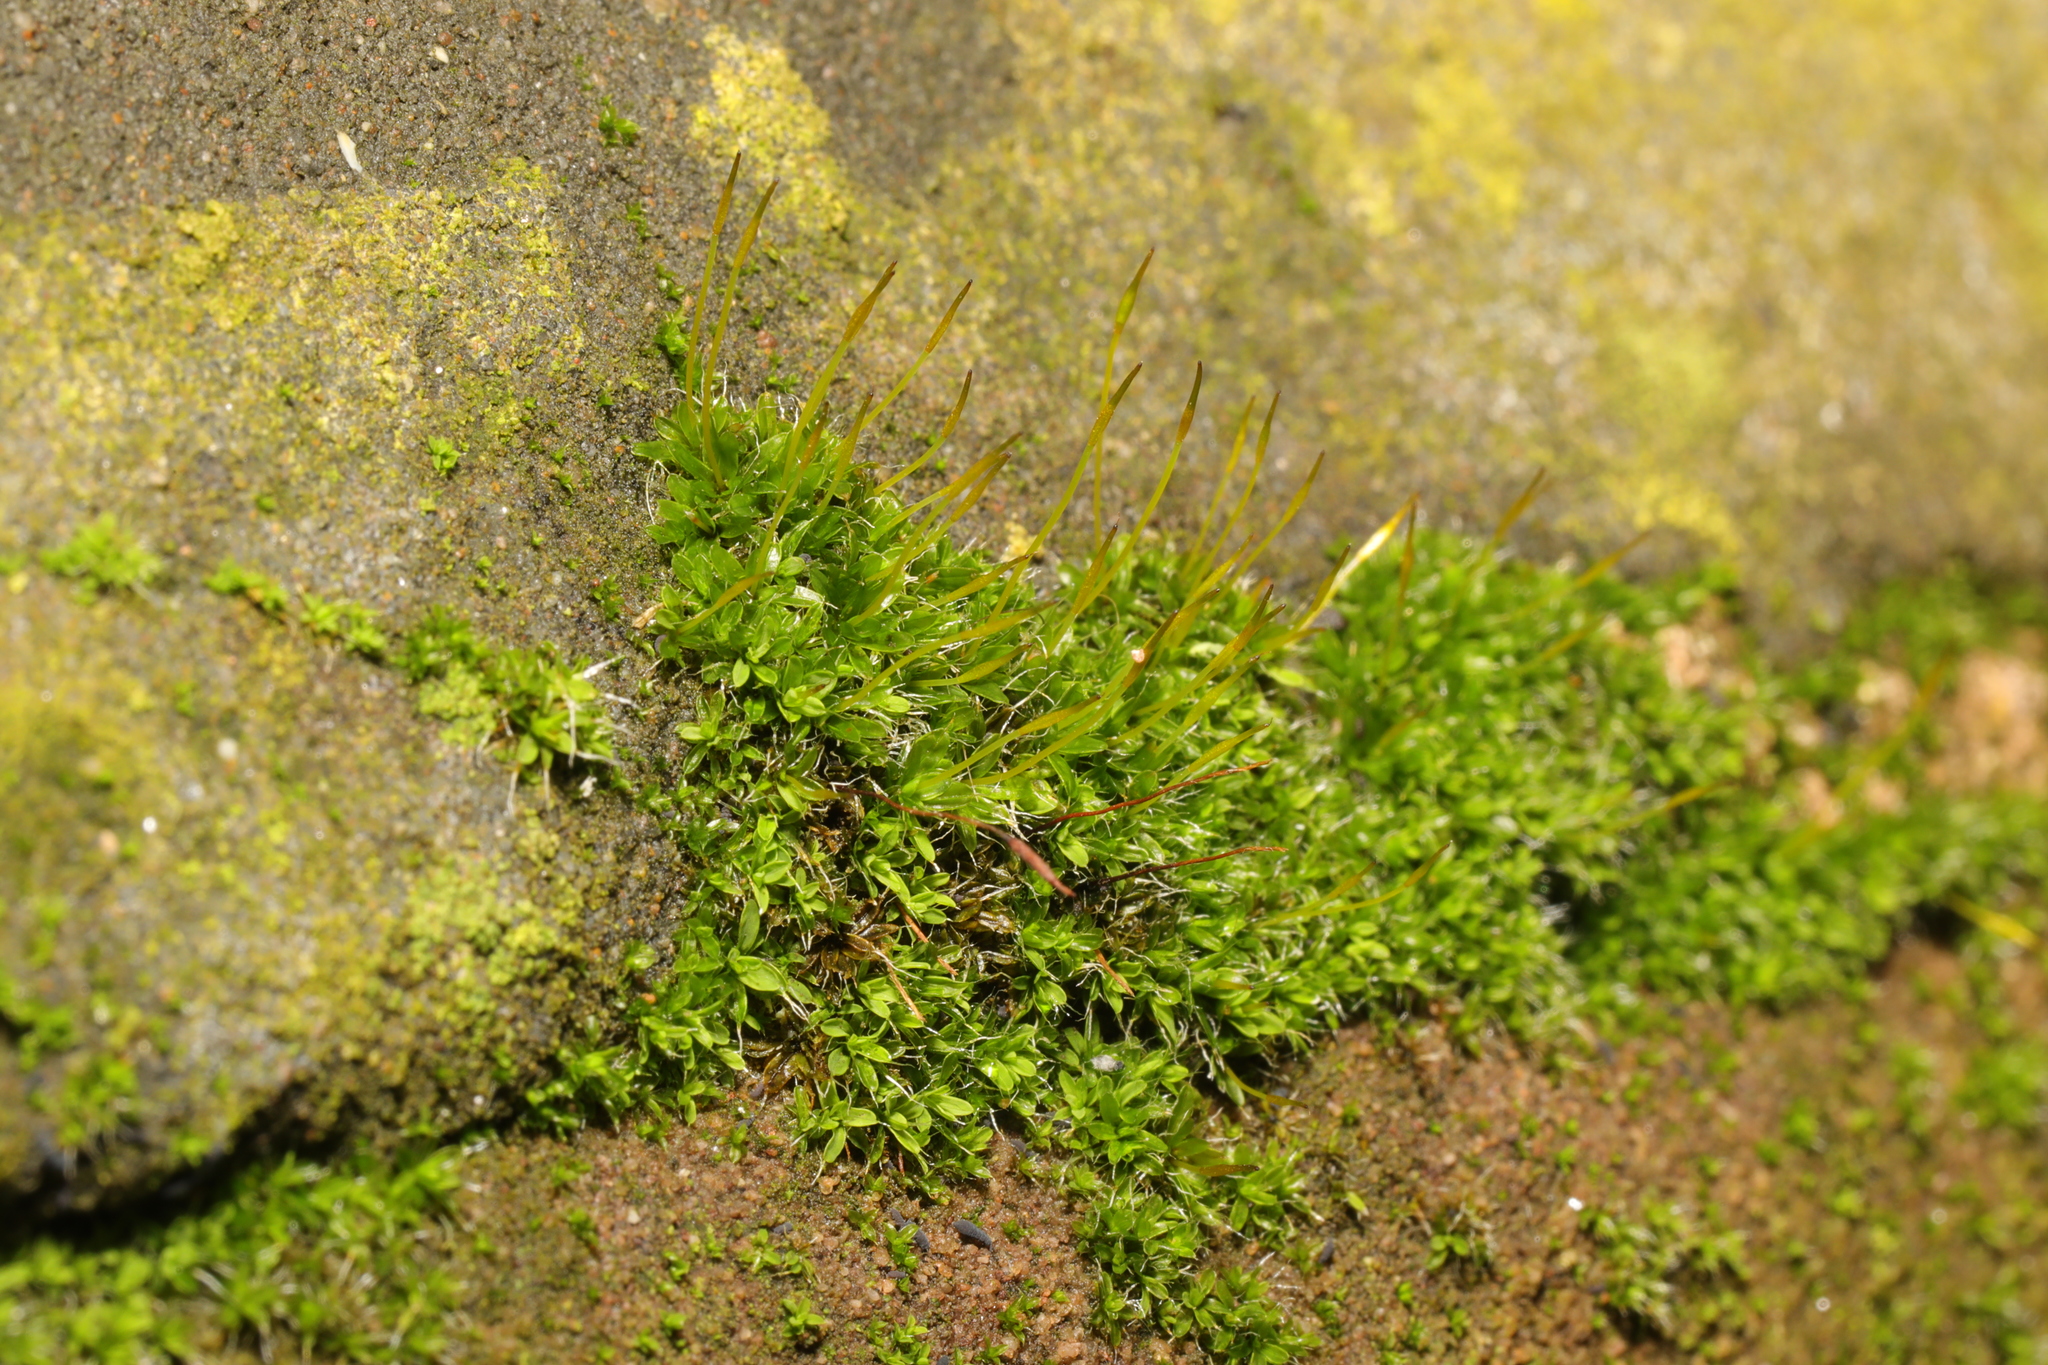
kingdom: Plantae
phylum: Bryophyta
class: Bryopsida
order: Pottiales
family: Pottiaceae
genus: Tortula
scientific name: Tortula muralis
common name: Wall screw-moss
